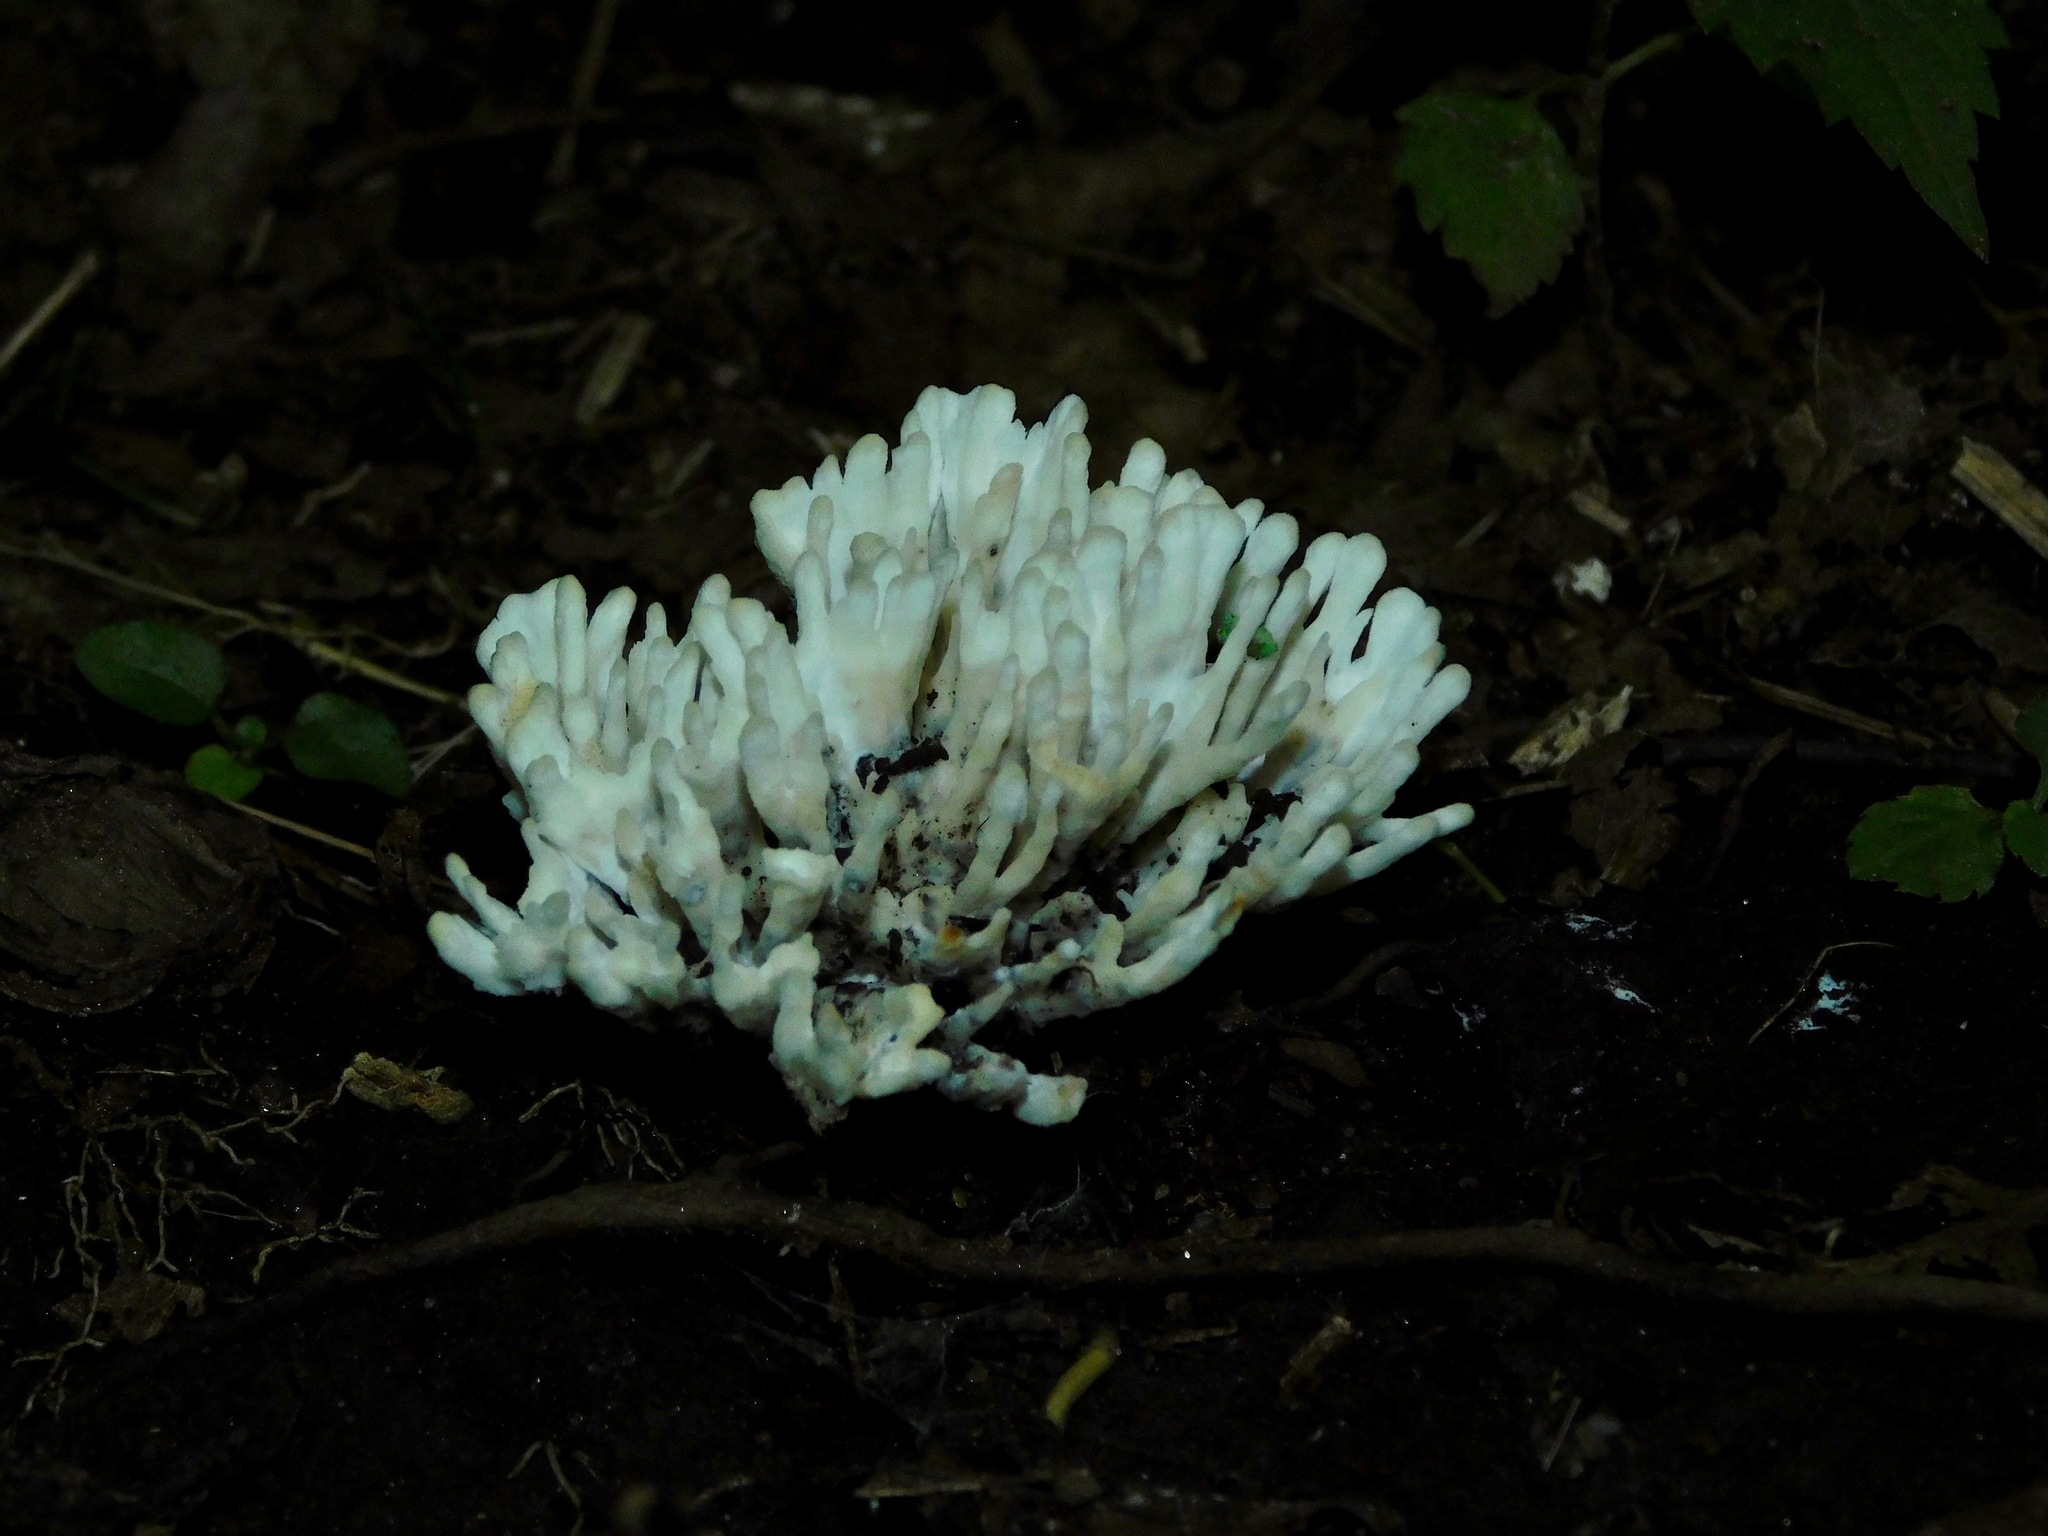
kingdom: Fungi
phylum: Basidiomycota
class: Agaricomycetes
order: Sebacinales
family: Sebacinaceae
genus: Sebacina
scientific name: Sebacina schweinitzii
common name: Jellied false coral fungus
